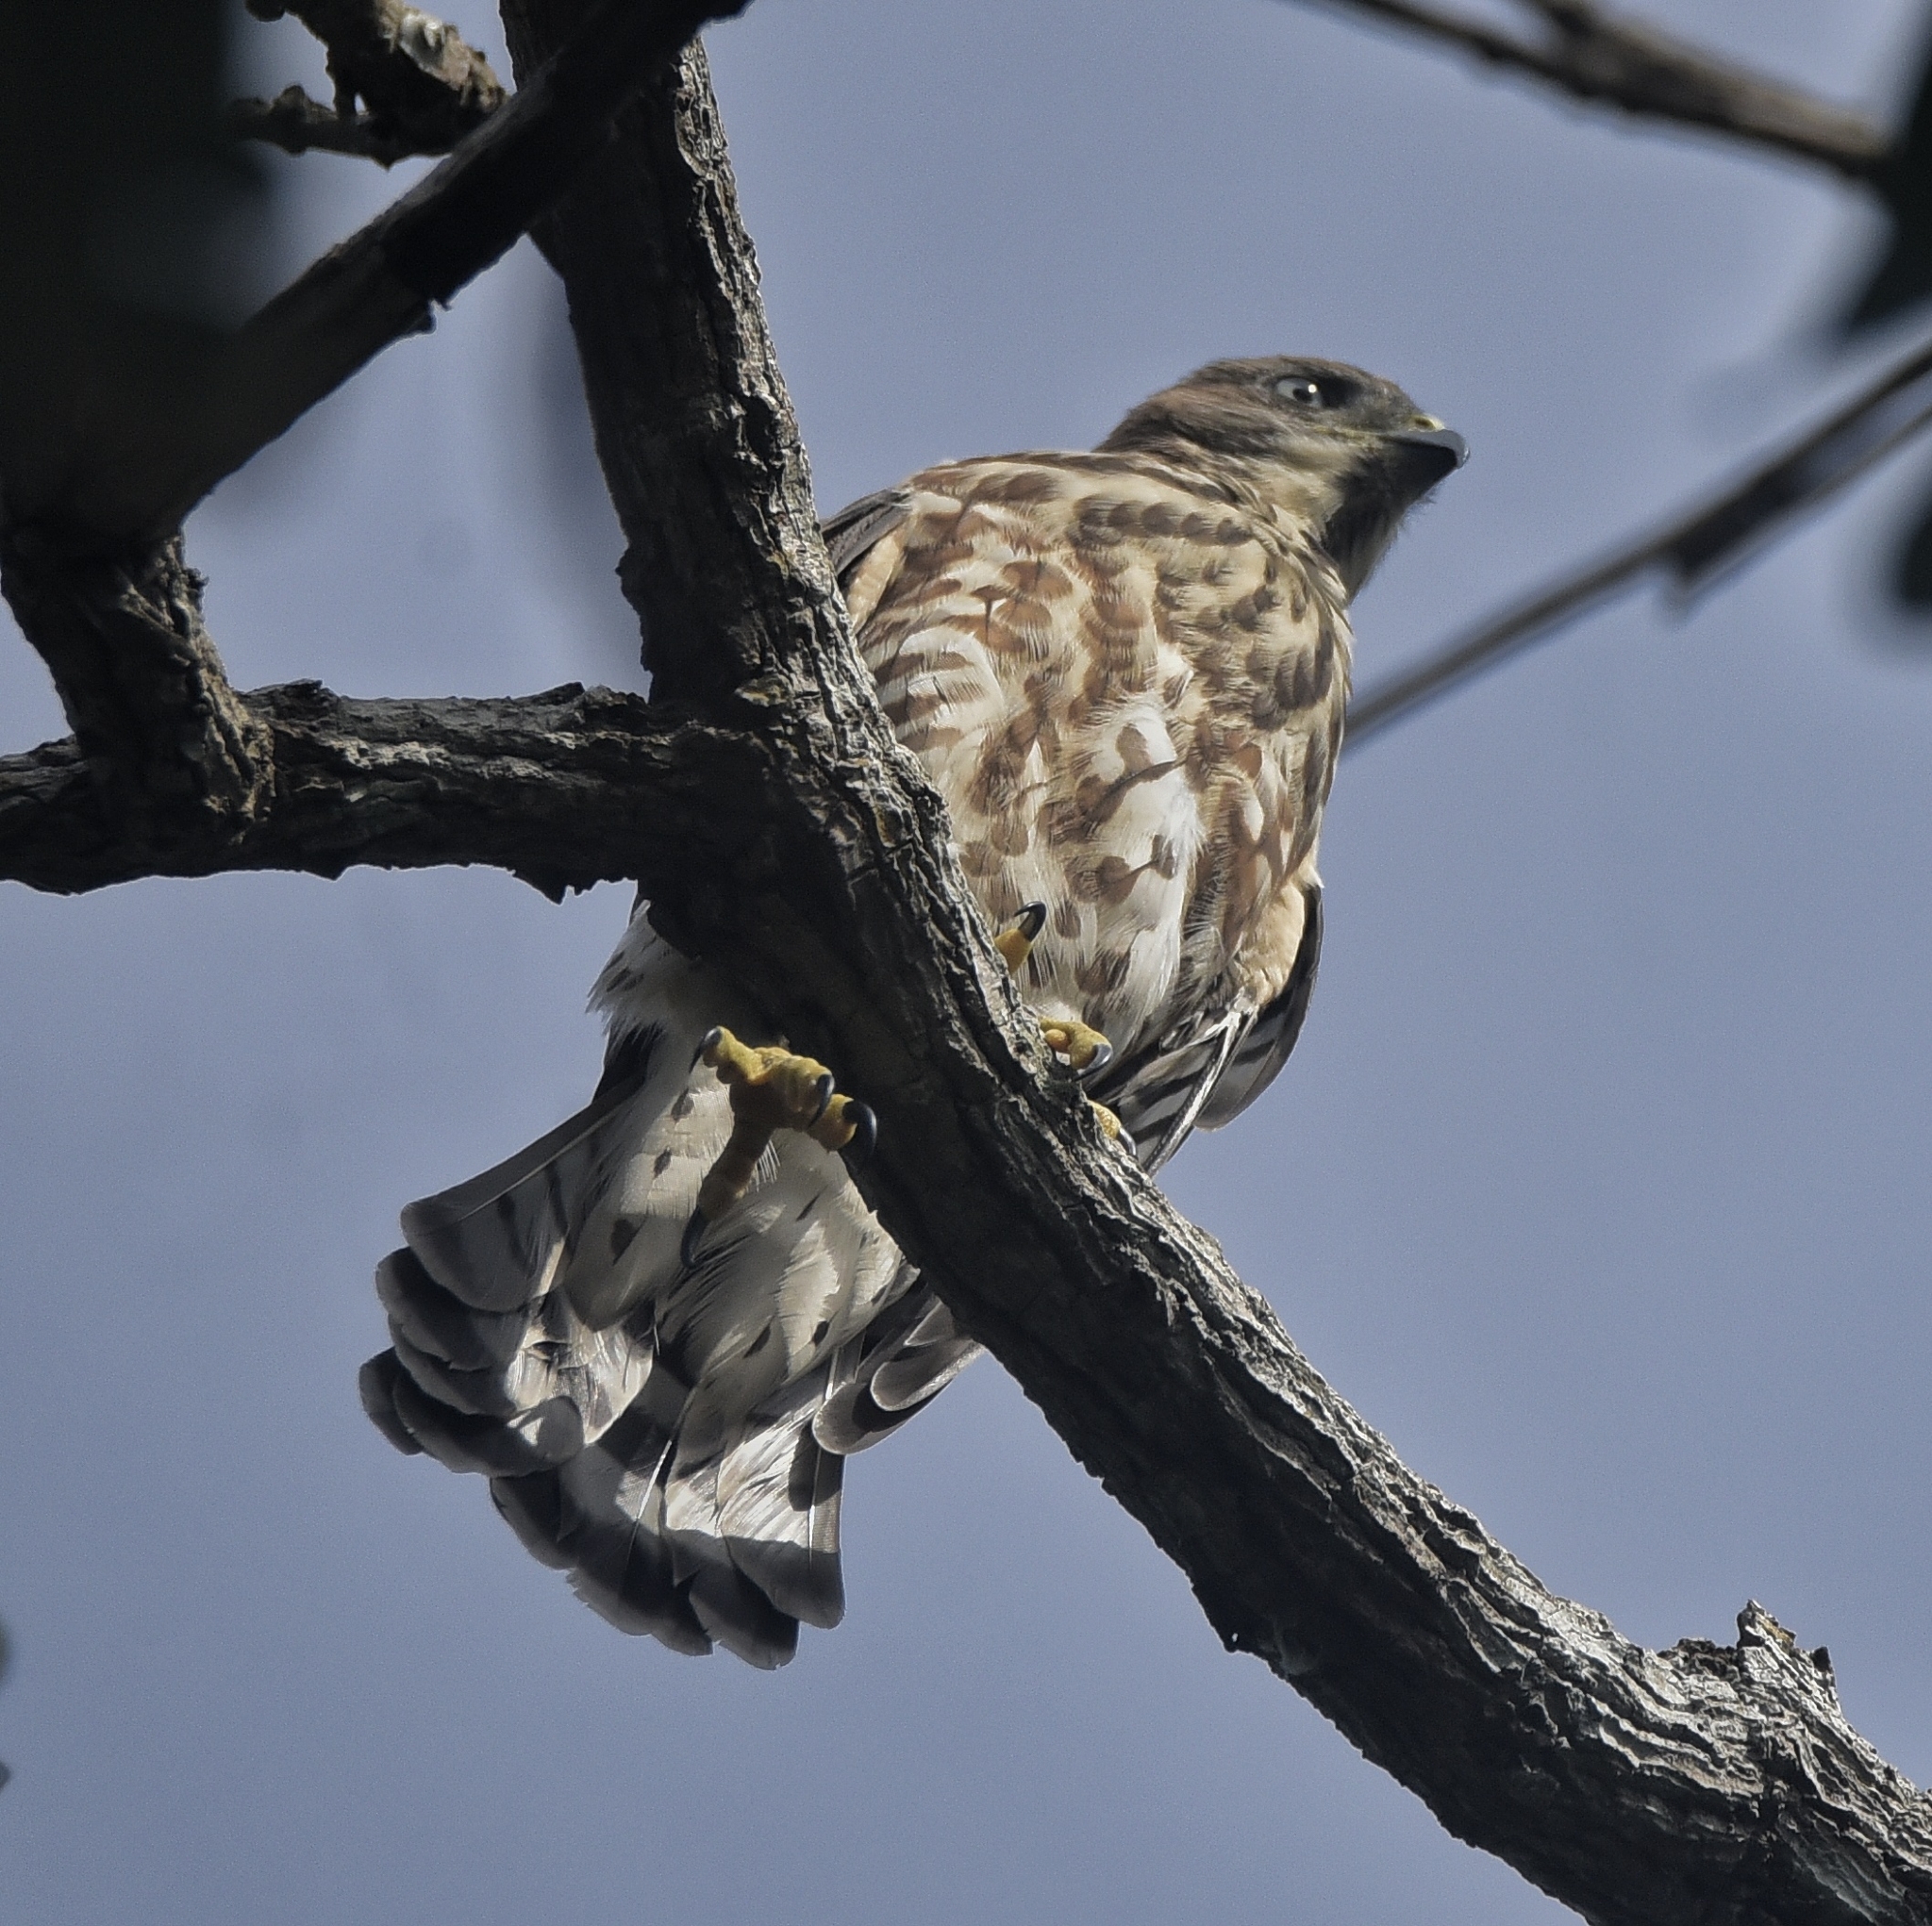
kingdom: Animalia
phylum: Chordata
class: Aves
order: Accipitriformes
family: Accipitridae
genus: Accipiter
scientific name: Accipiter badius
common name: Shikra
